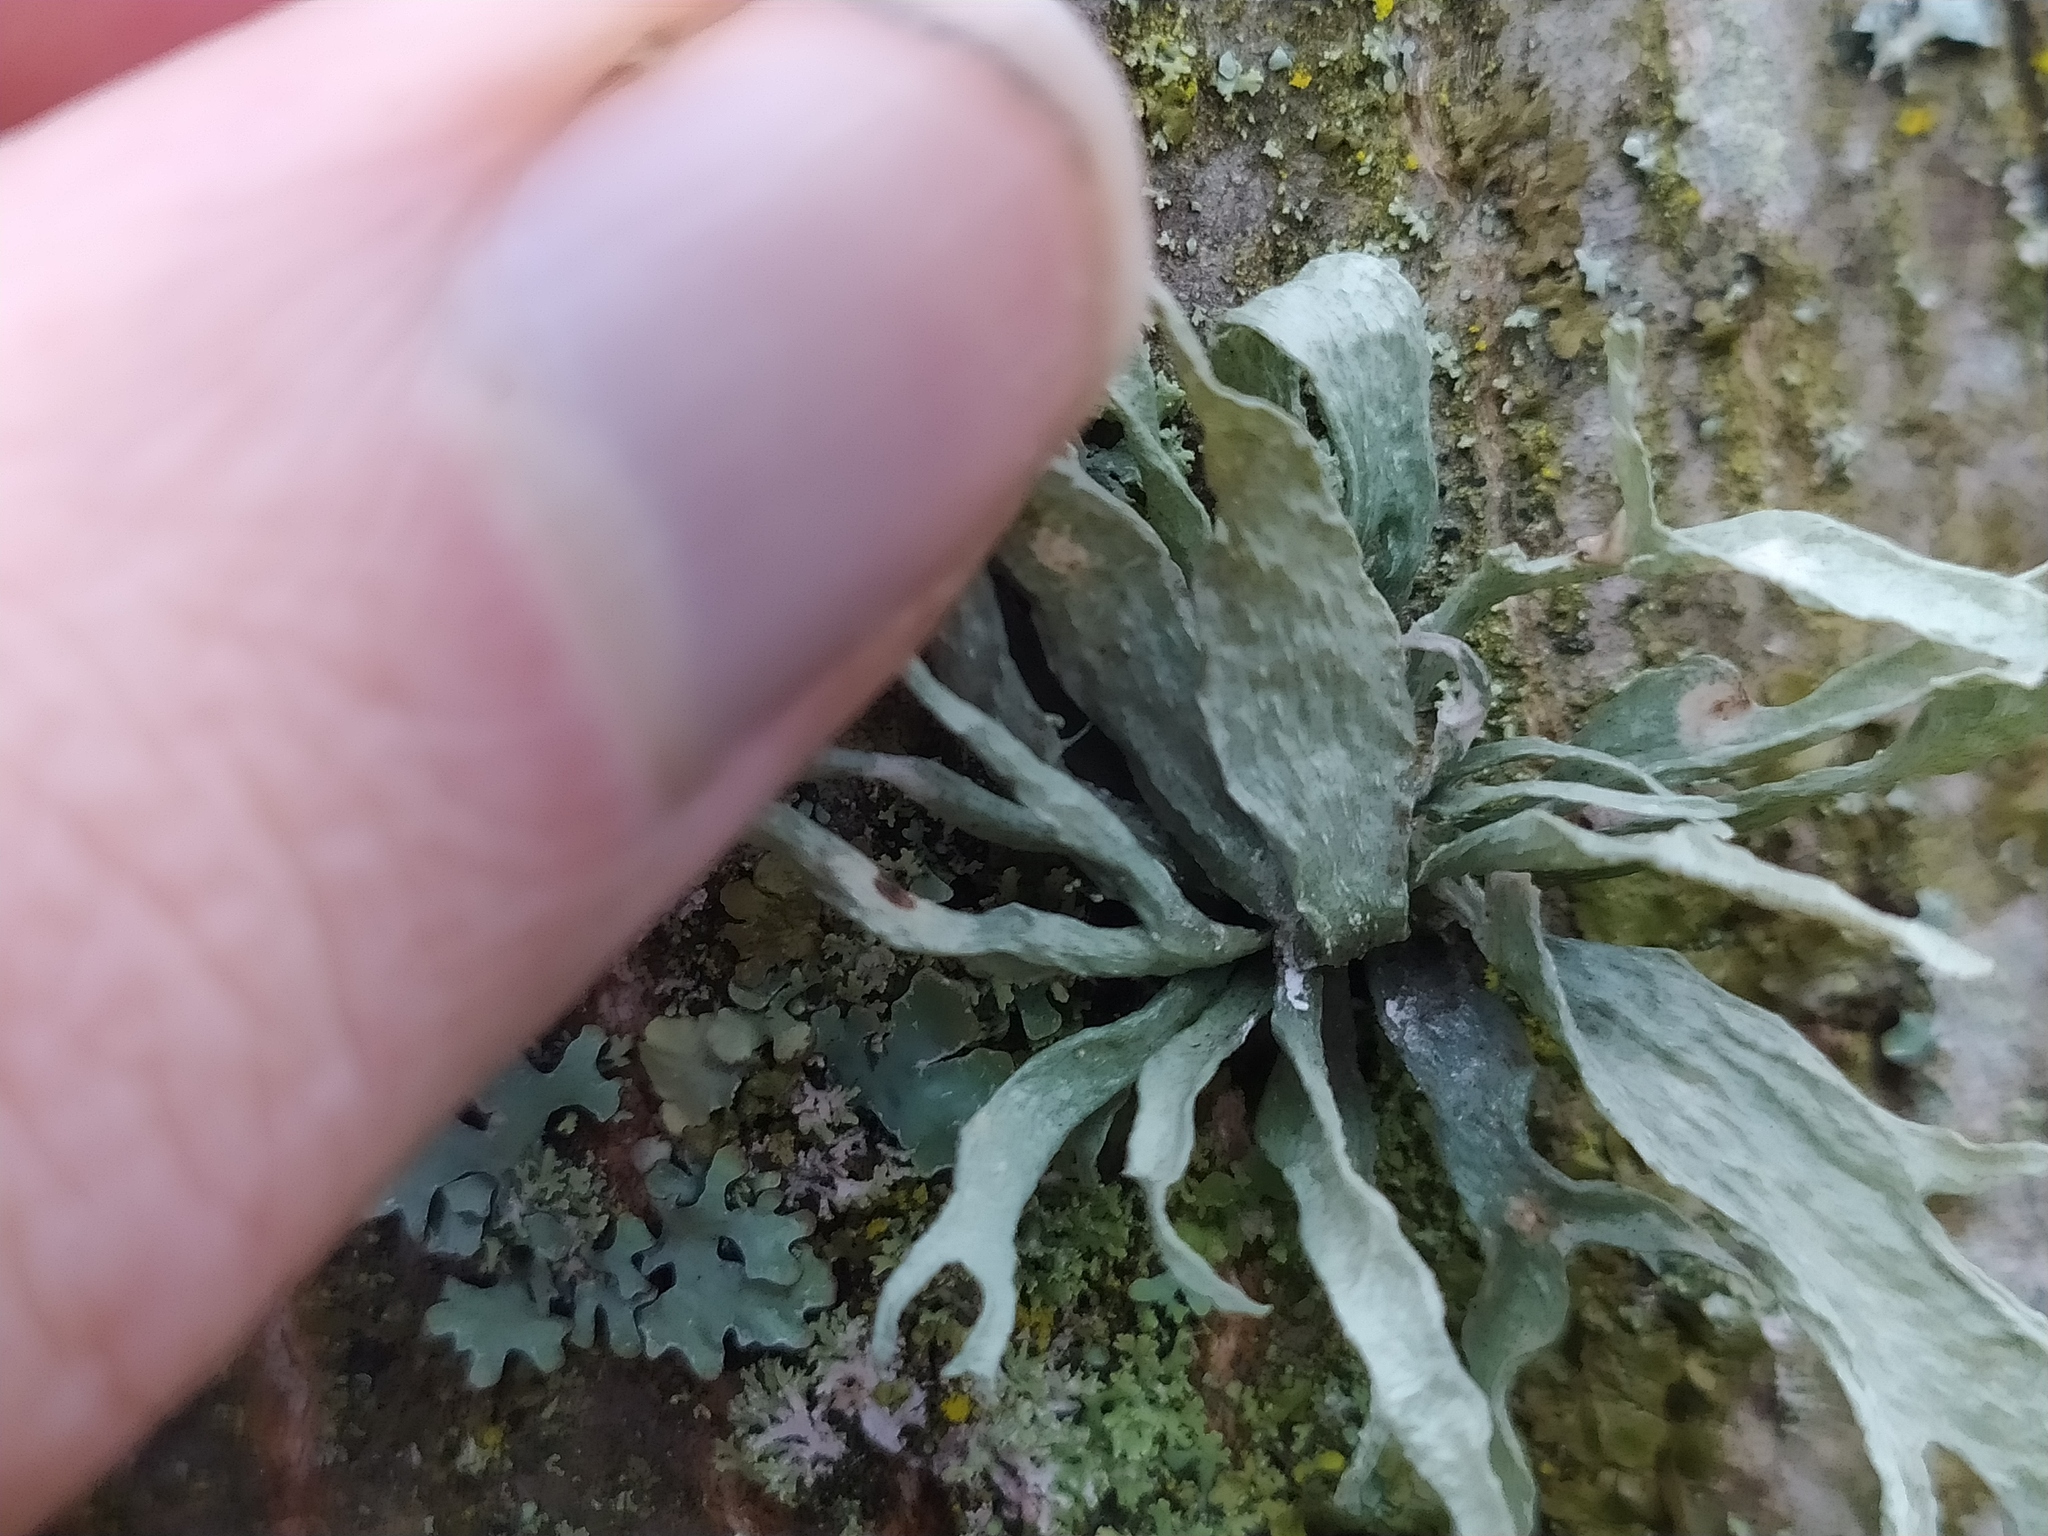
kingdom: Fungi
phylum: Ascomycota
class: Lecanoromycetes
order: Lecanorales
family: Ramalinaceae
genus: Ramalina
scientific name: Ramalina fraxinea
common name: Cartilage lichen
